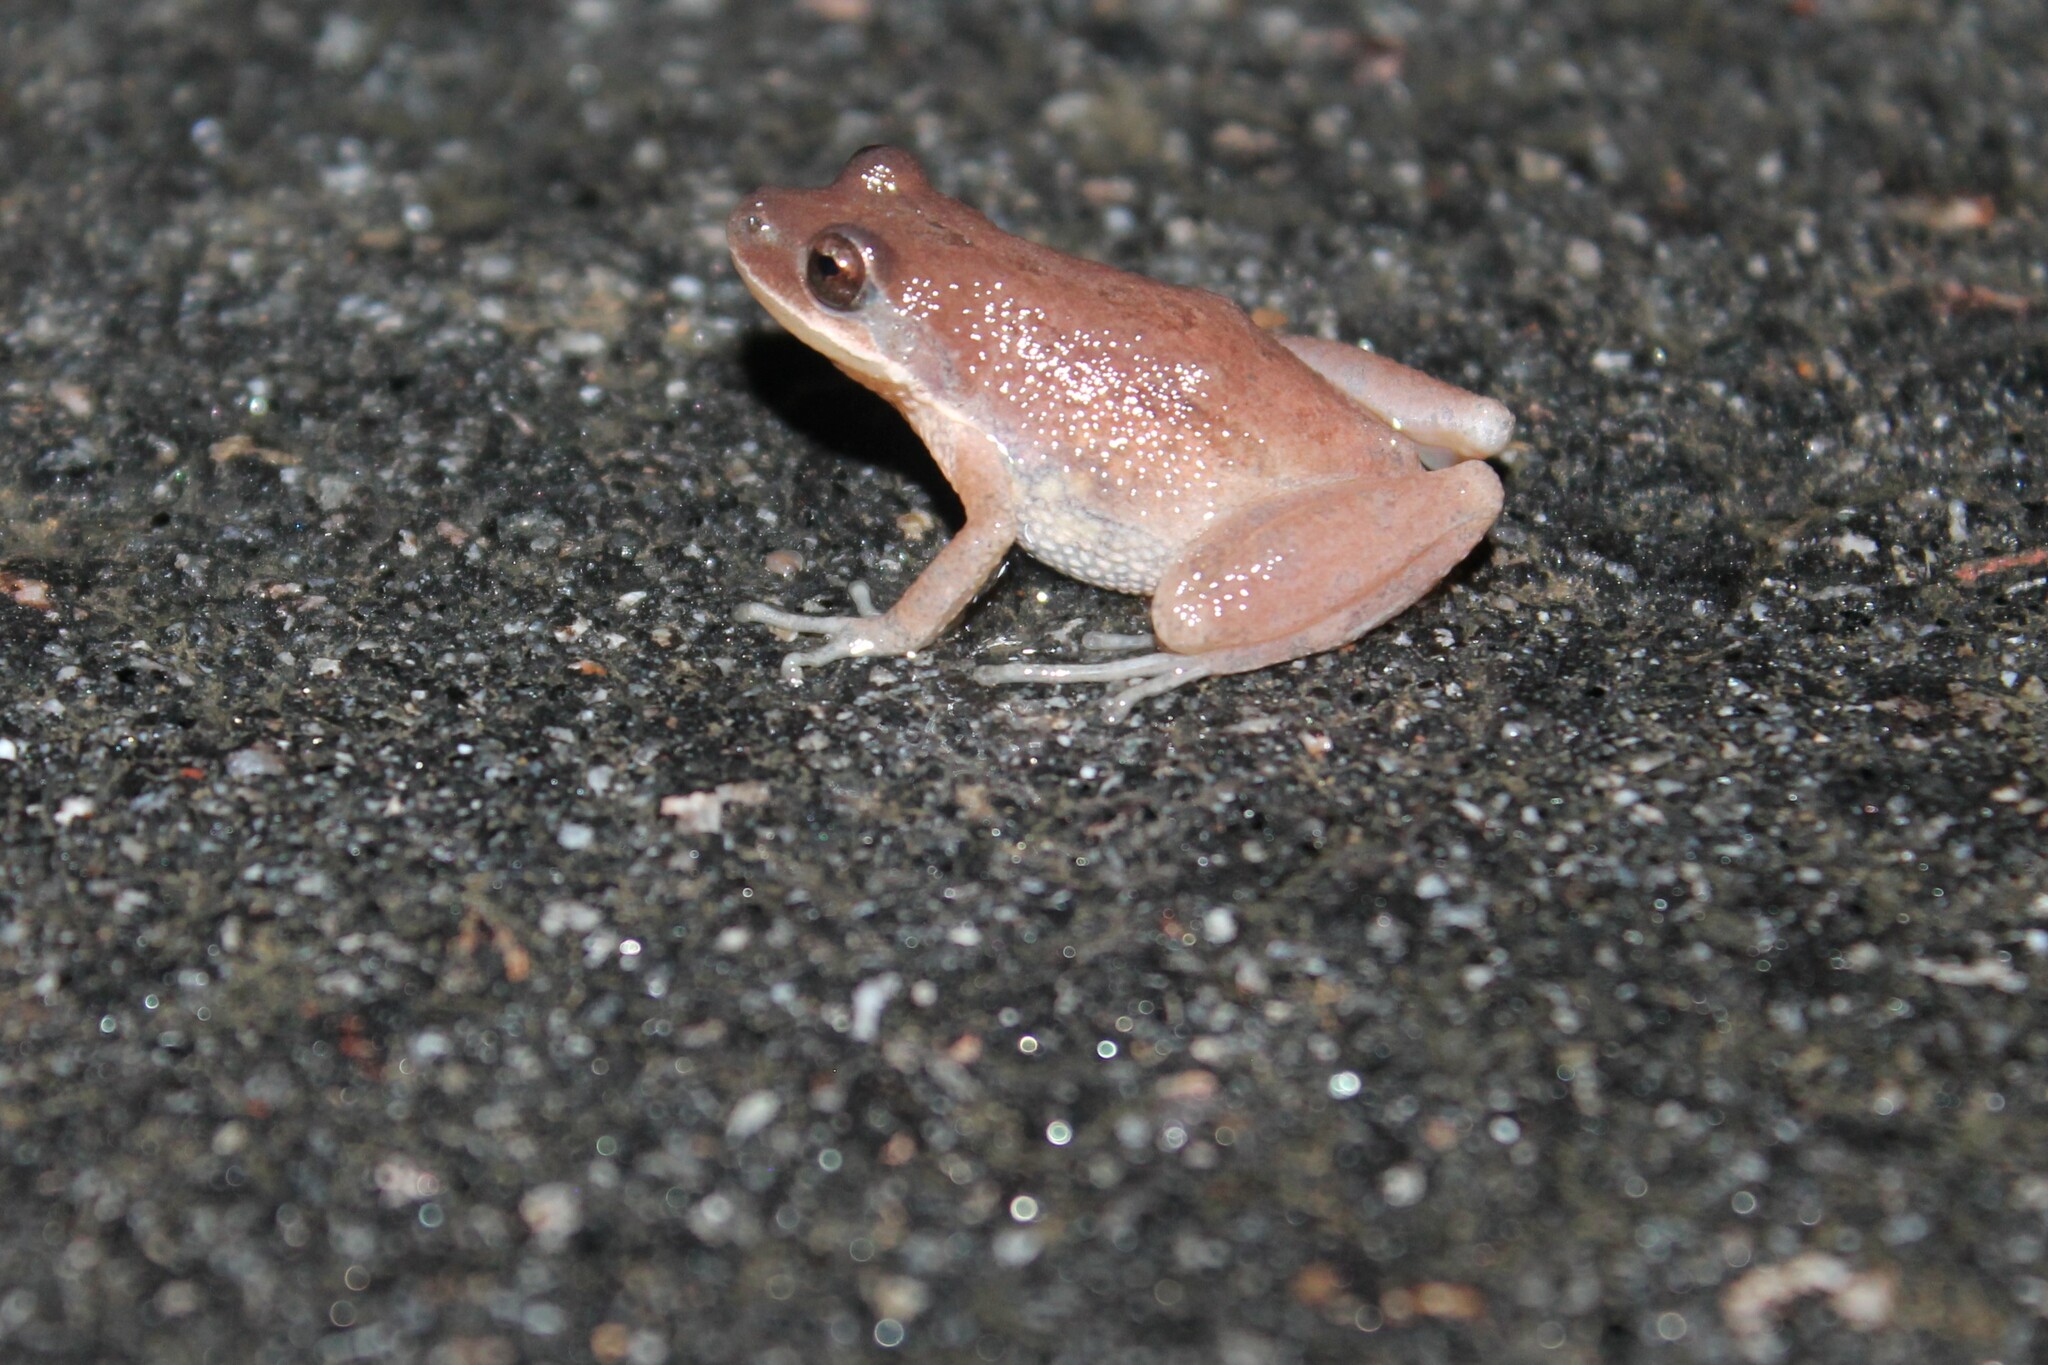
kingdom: Animalia
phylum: Chordata
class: Amphibia
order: Anura
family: Hylidae
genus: Pseudacris
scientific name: Pseudacris feriarum
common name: Upland chorus frog
